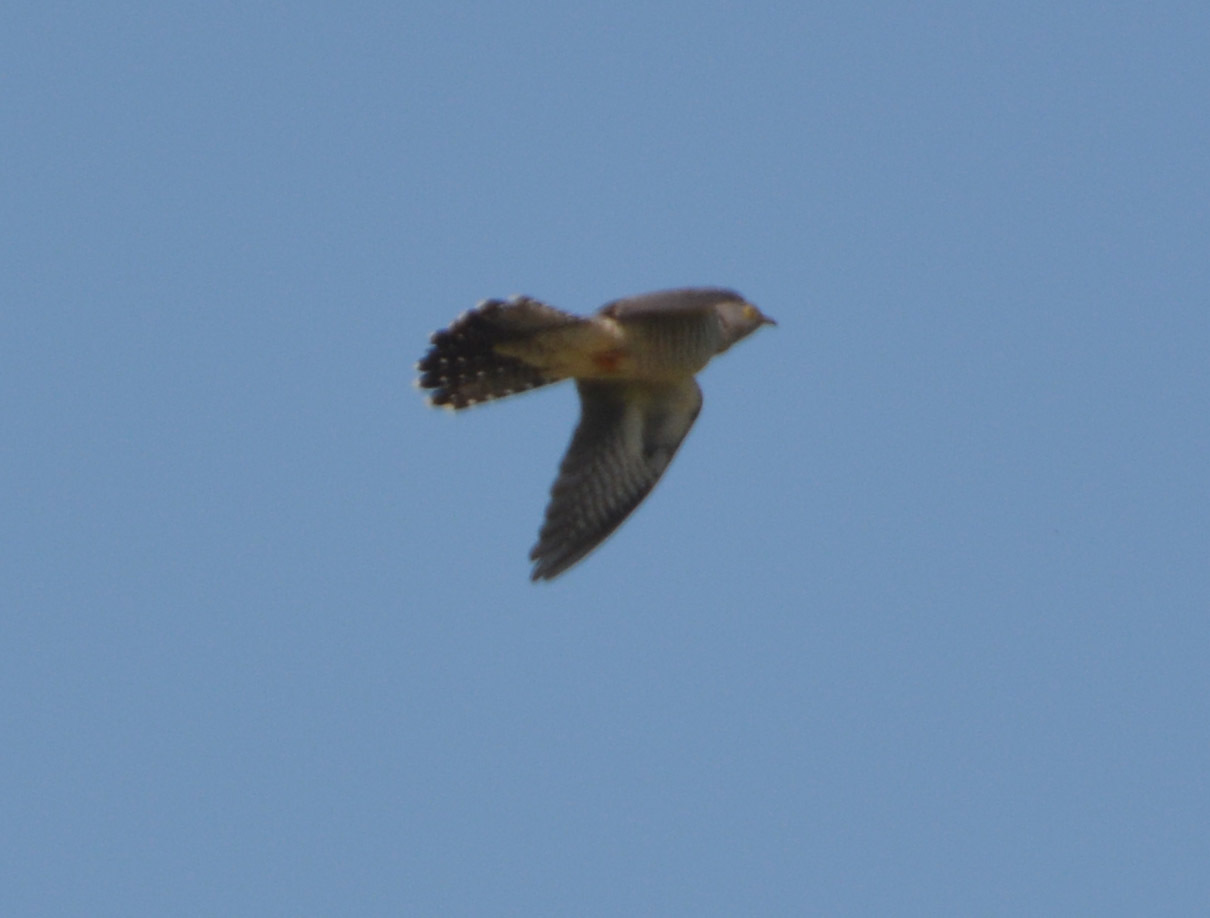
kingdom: Animalia
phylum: Chordata
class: Aves
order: Cuculiformes
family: Cuculidae
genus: Cuculus
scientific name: Cuculus canorus
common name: Common cuckoo
